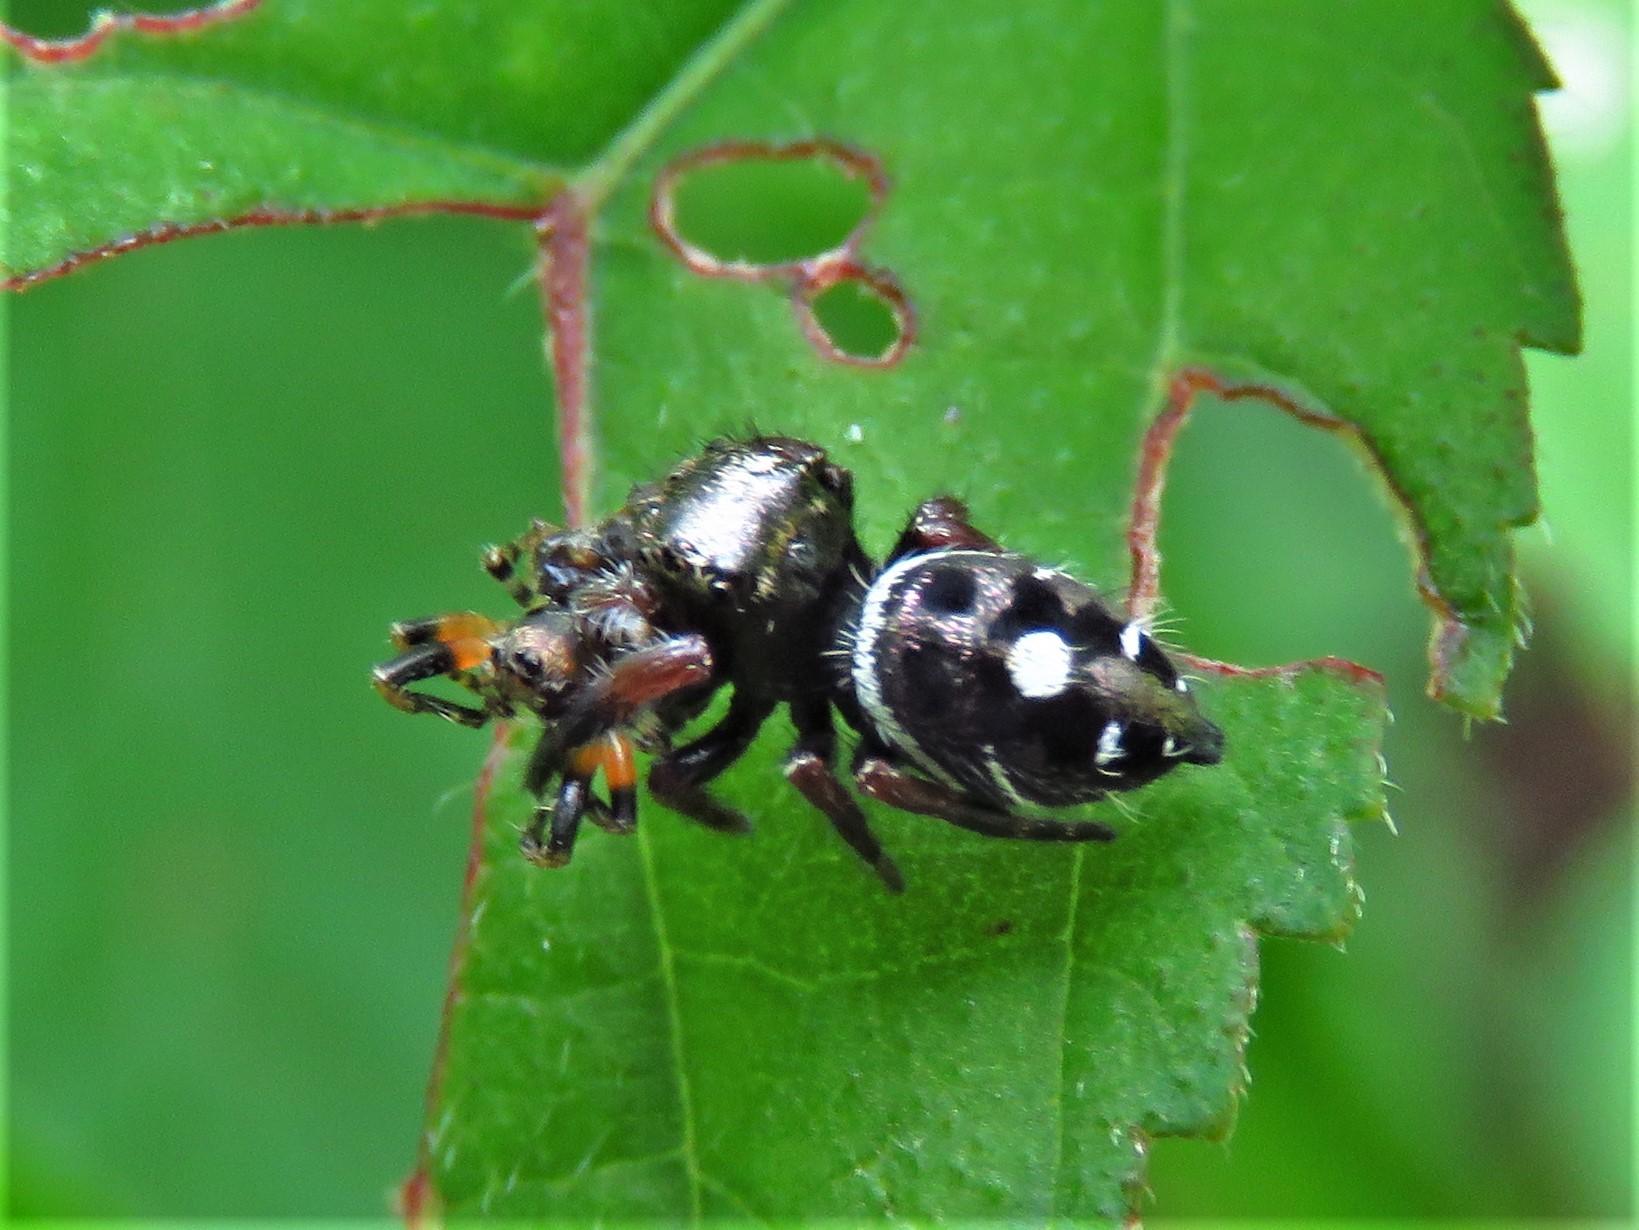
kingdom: Animalia
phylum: Arthropoda
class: Arachnida
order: Araneae
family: Salticidae
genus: Phidippus
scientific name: Phidippus audax
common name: Bold jumper
